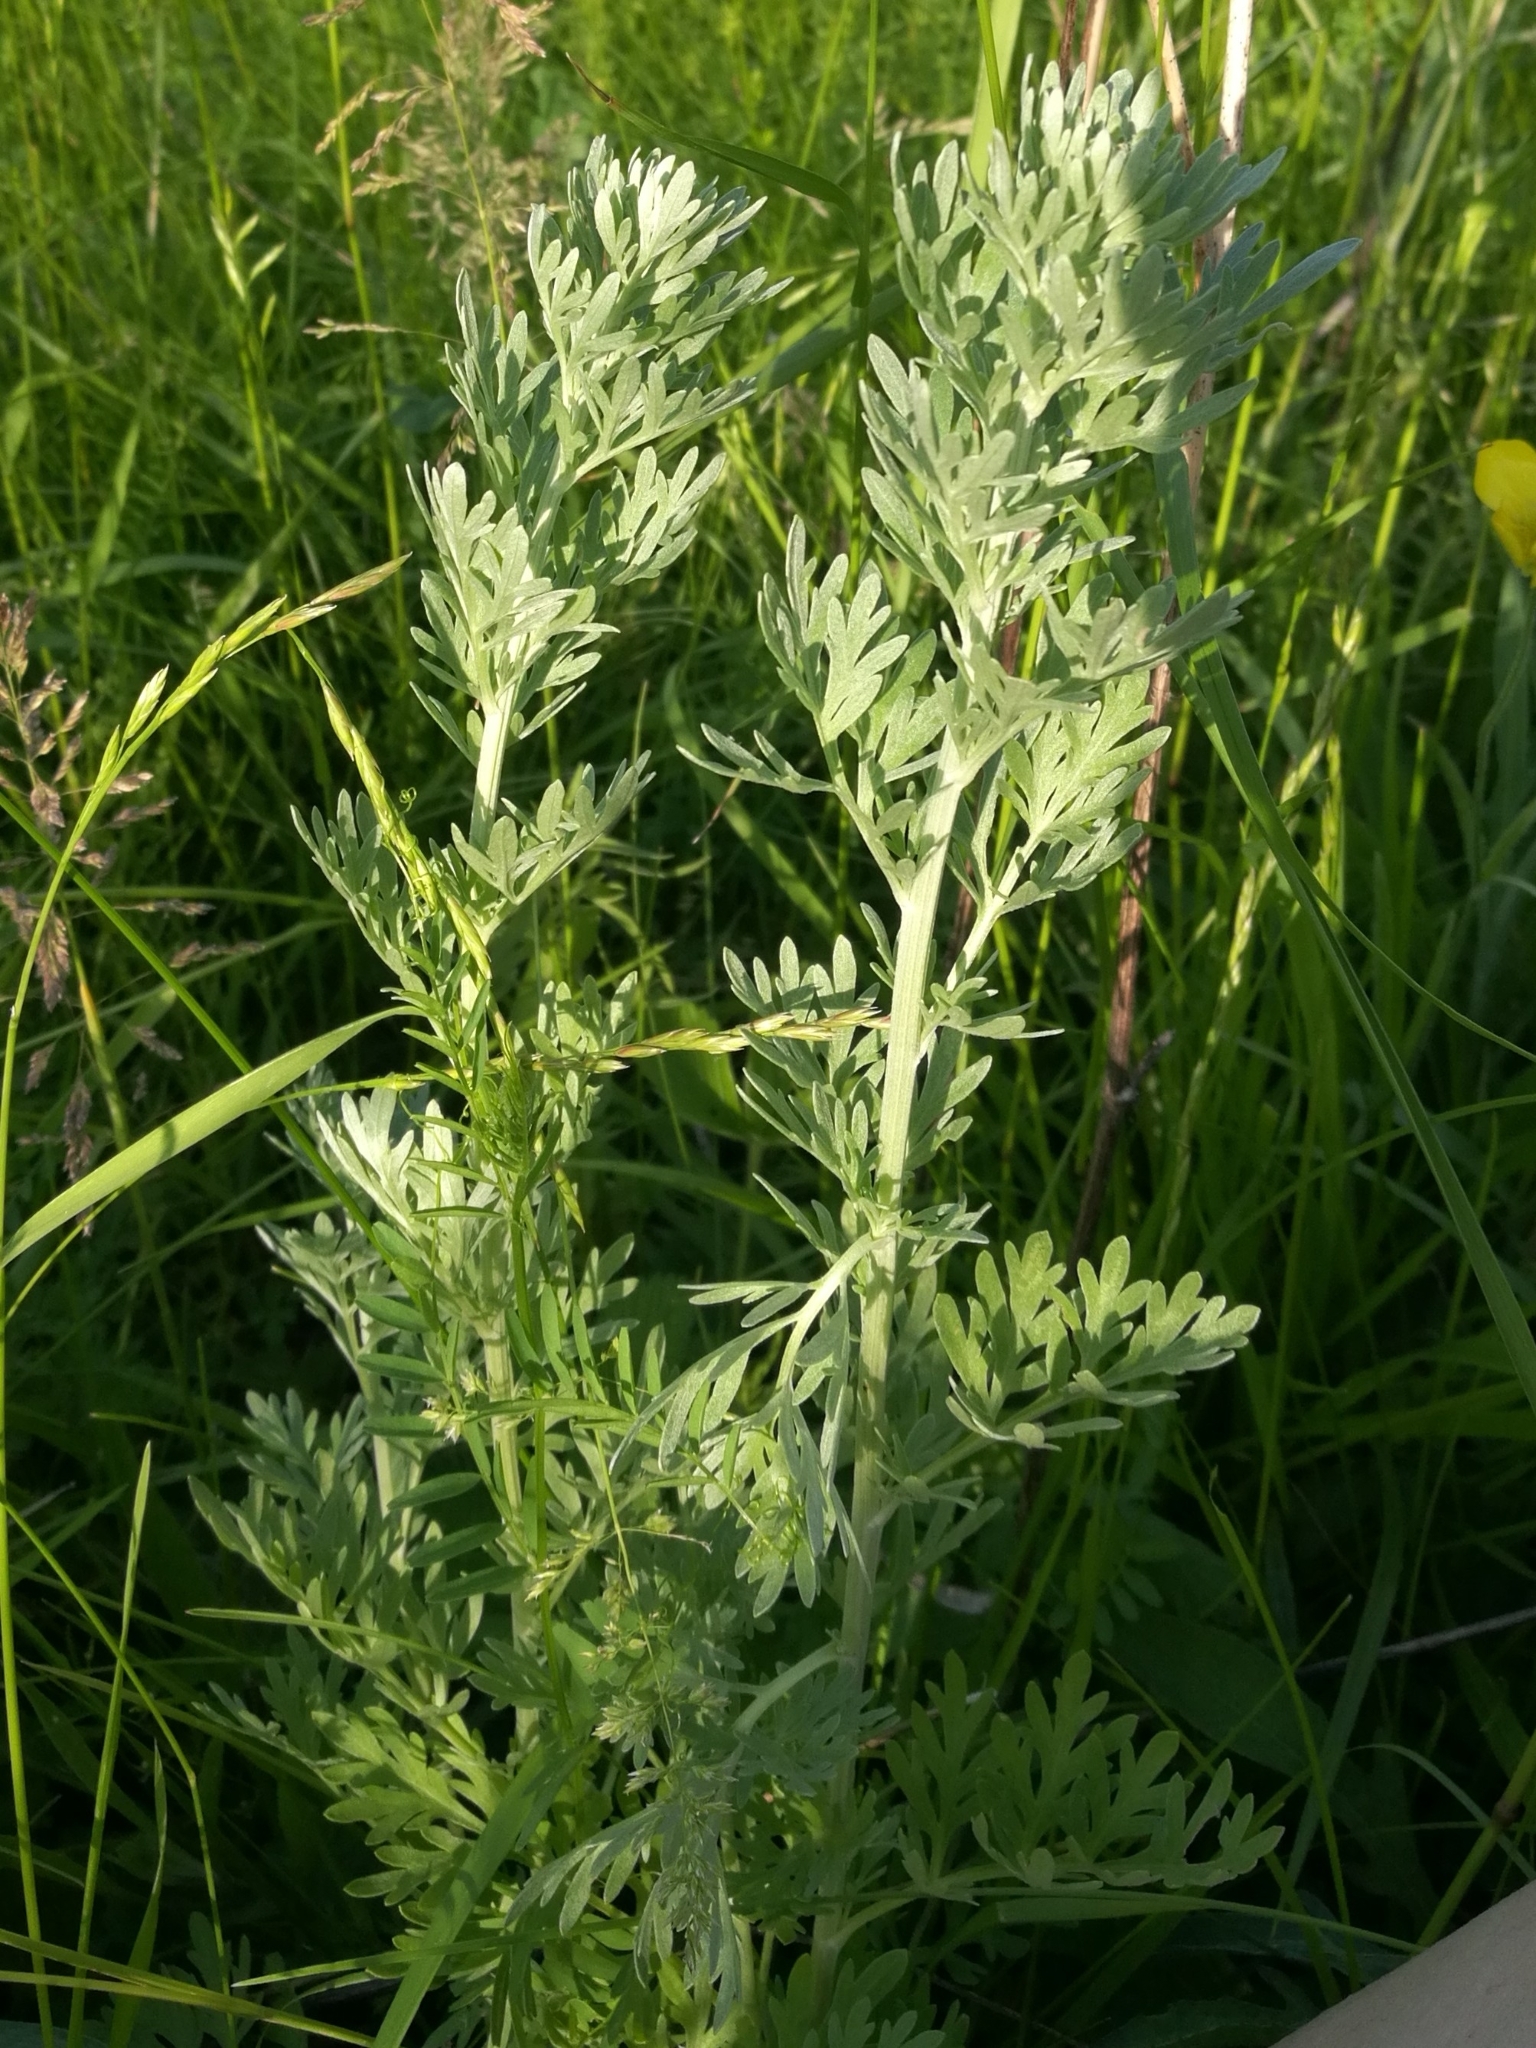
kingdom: Plantae
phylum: Tracheophyta
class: Magnoliopsida
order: Asterales
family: Asteraceae
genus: Artemisia
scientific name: Artemisia absinthium
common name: Wormwood
